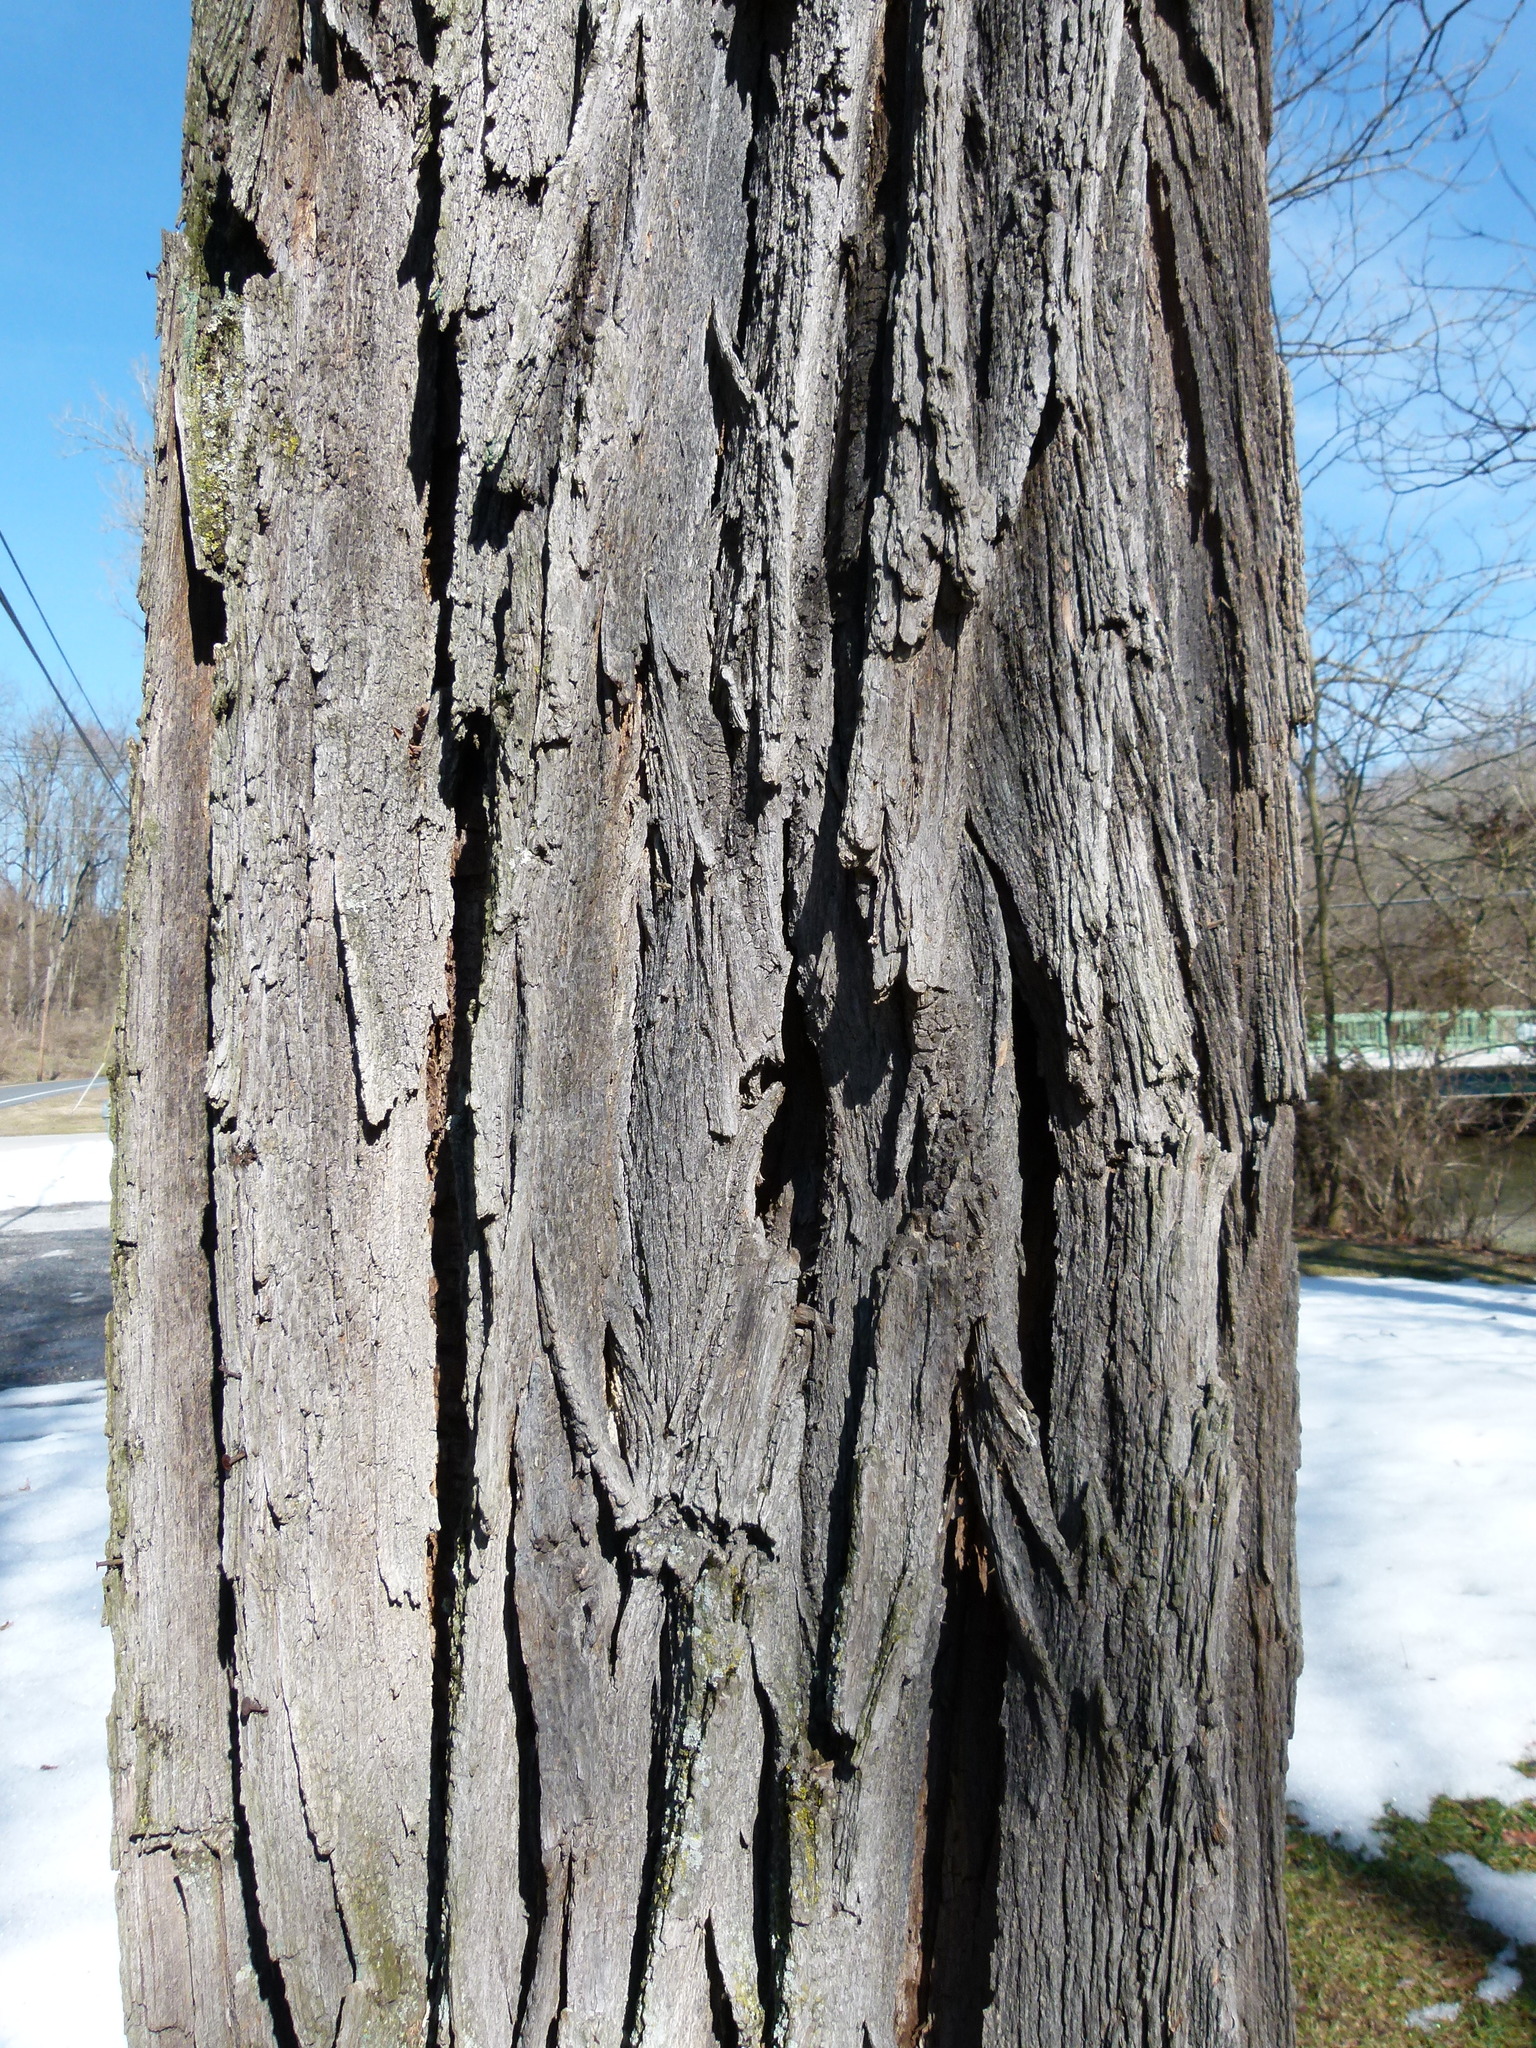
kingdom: Plantae
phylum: Tracheophyta
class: Magnoliopsida
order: Fabales
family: Fabaceae
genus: Robinia
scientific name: Robinia pseudoacacia
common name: Black locust
